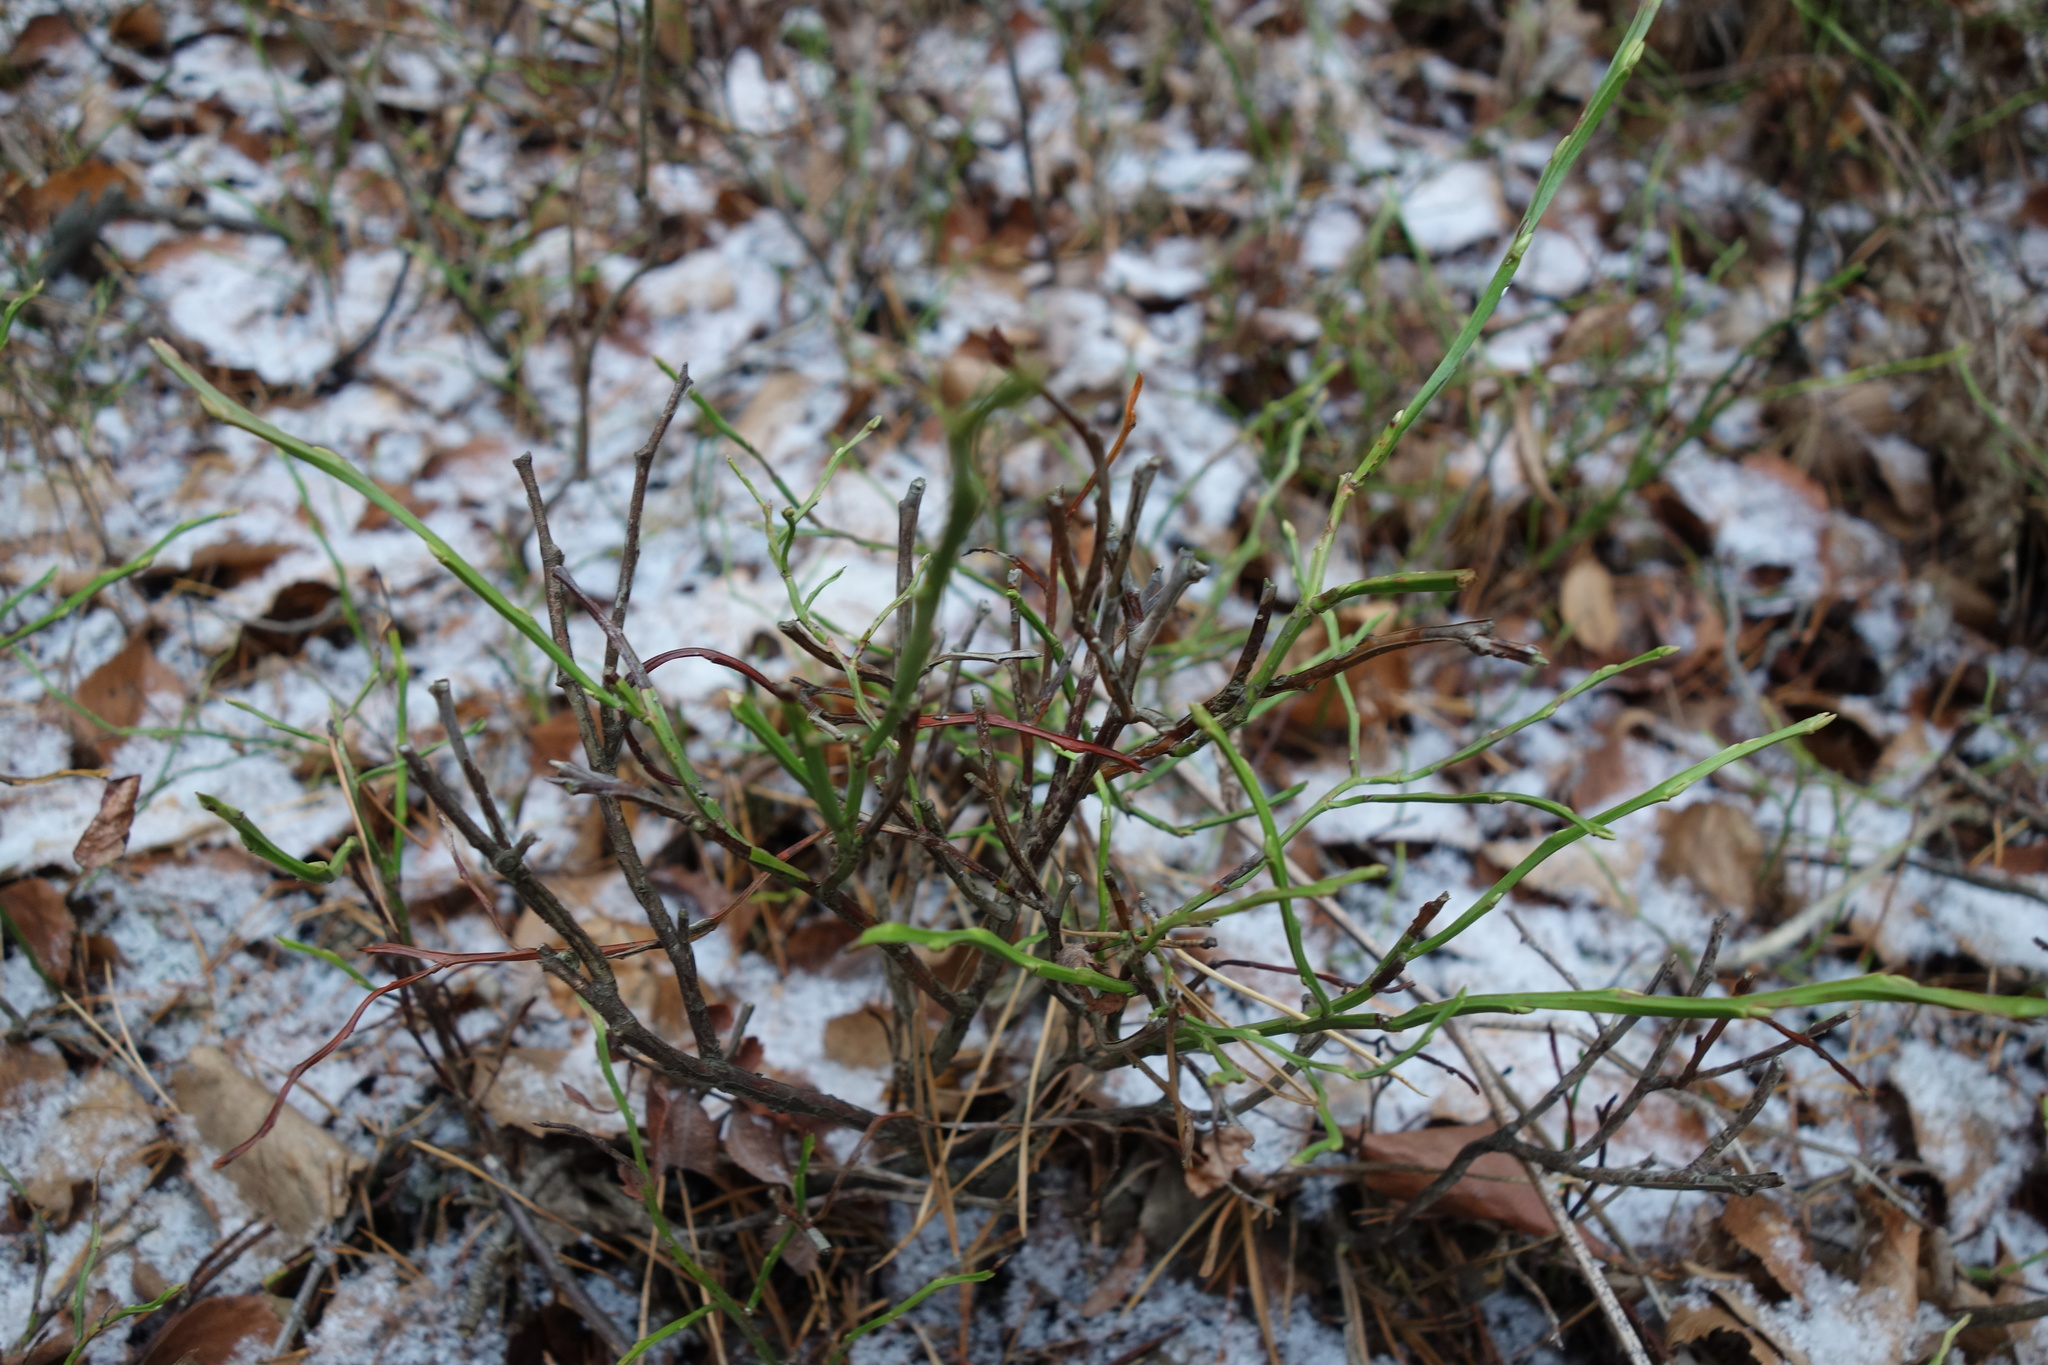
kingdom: Plantae
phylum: Tracheophyta
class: Magnoliopsida
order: Ericales
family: Ericaceae
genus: Vaccinium
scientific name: Vaccinium myrtillus
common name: Bilberry
